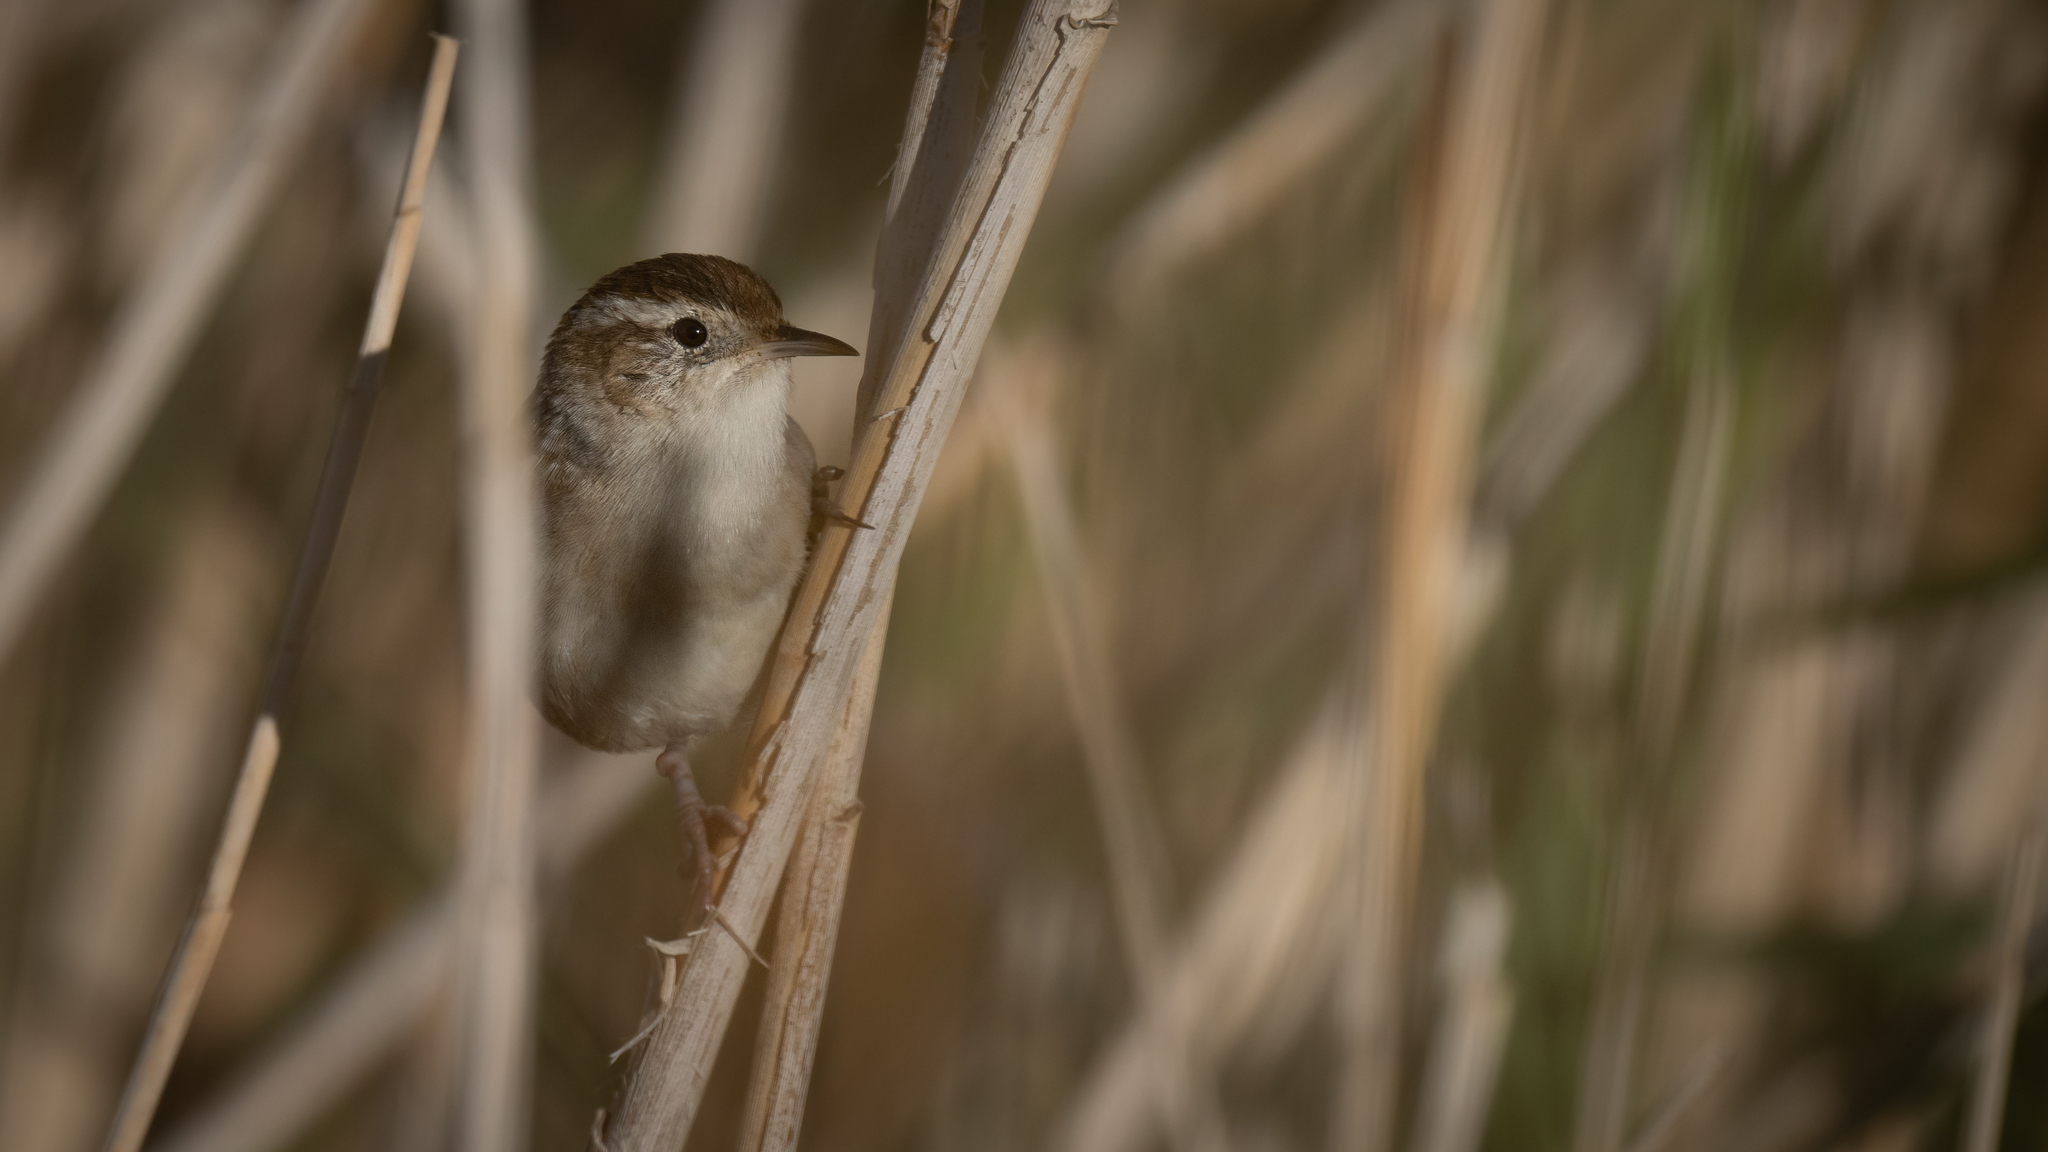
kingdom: Animalia
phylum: Chordata
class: Aves
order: Passeriformes
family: Troglodytidae
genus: Cistothorus
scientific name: Cistothorus palustris
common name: Marsh wren
